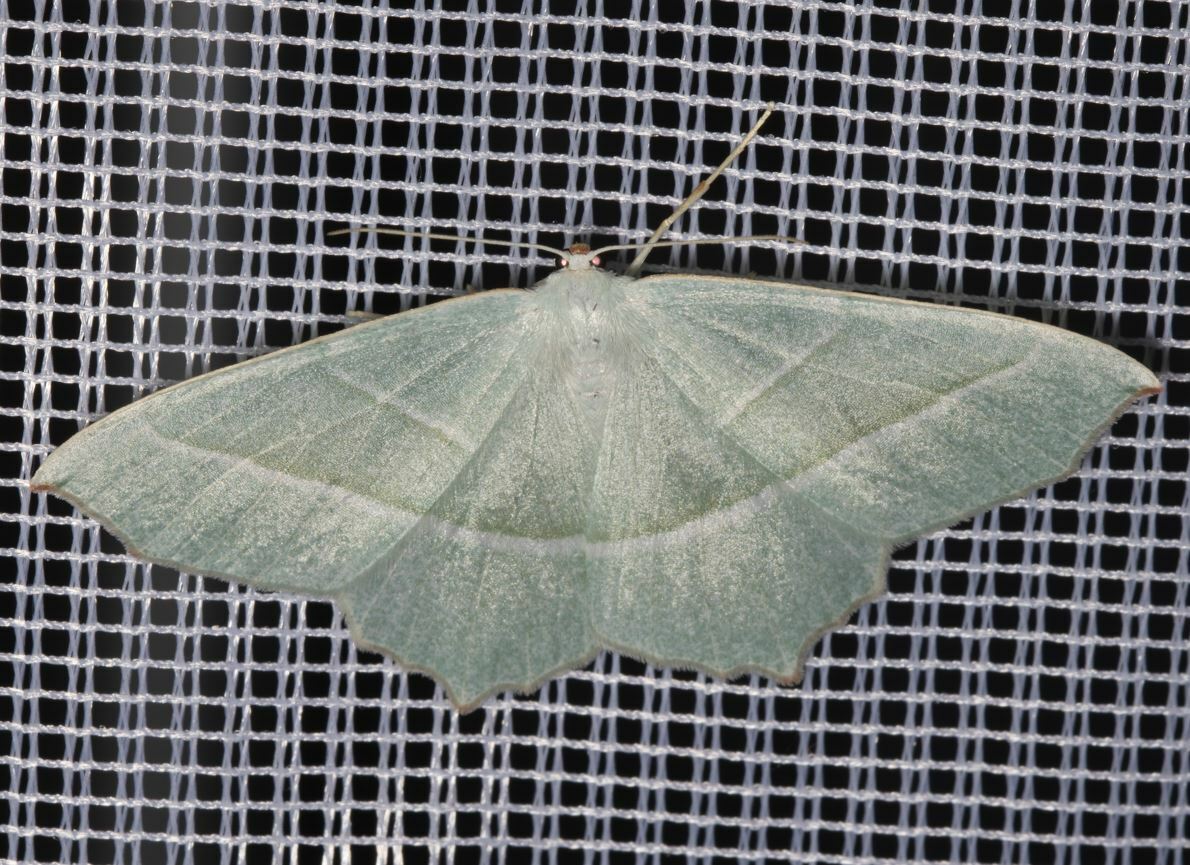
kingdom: Animalia
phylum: Arthropoda
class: Insecta
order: Lepidoptera
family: Geometridae
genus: Campaea
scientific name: Campaea margaritaria
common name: Light emerald
